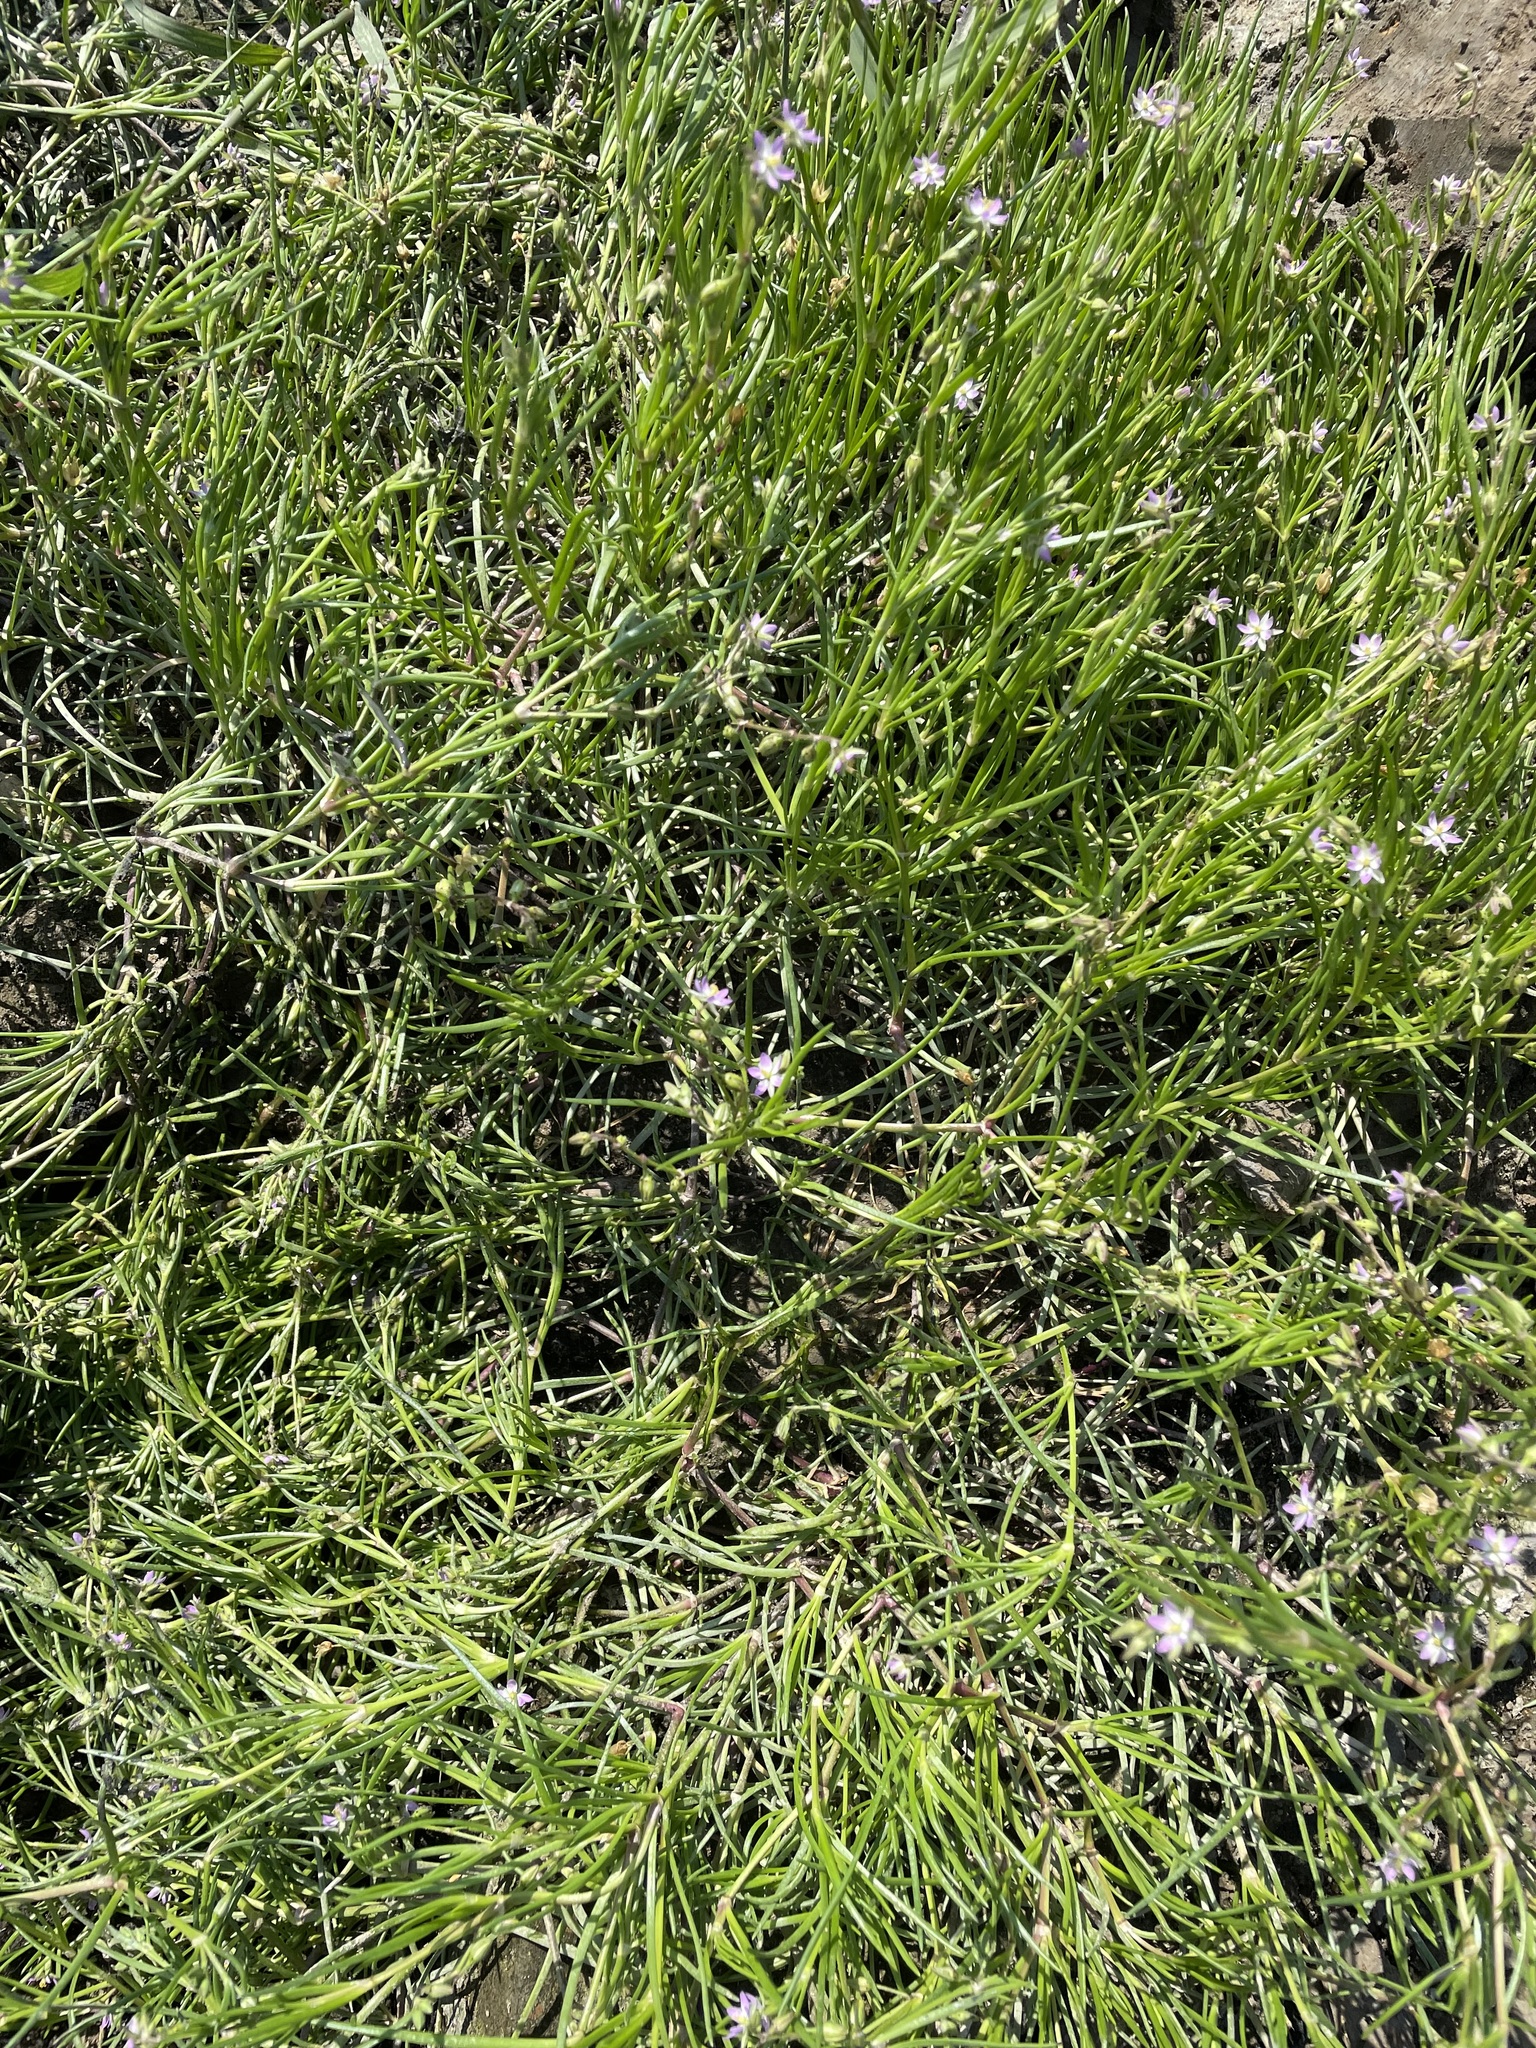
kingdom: Plantae
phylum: Tracheophyta
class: Magnoliopsida
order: Caryophyllales
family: Caryophyllaceae
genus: Spergularia
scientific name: Spergularia marina
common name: Lesser sea-spurrey
